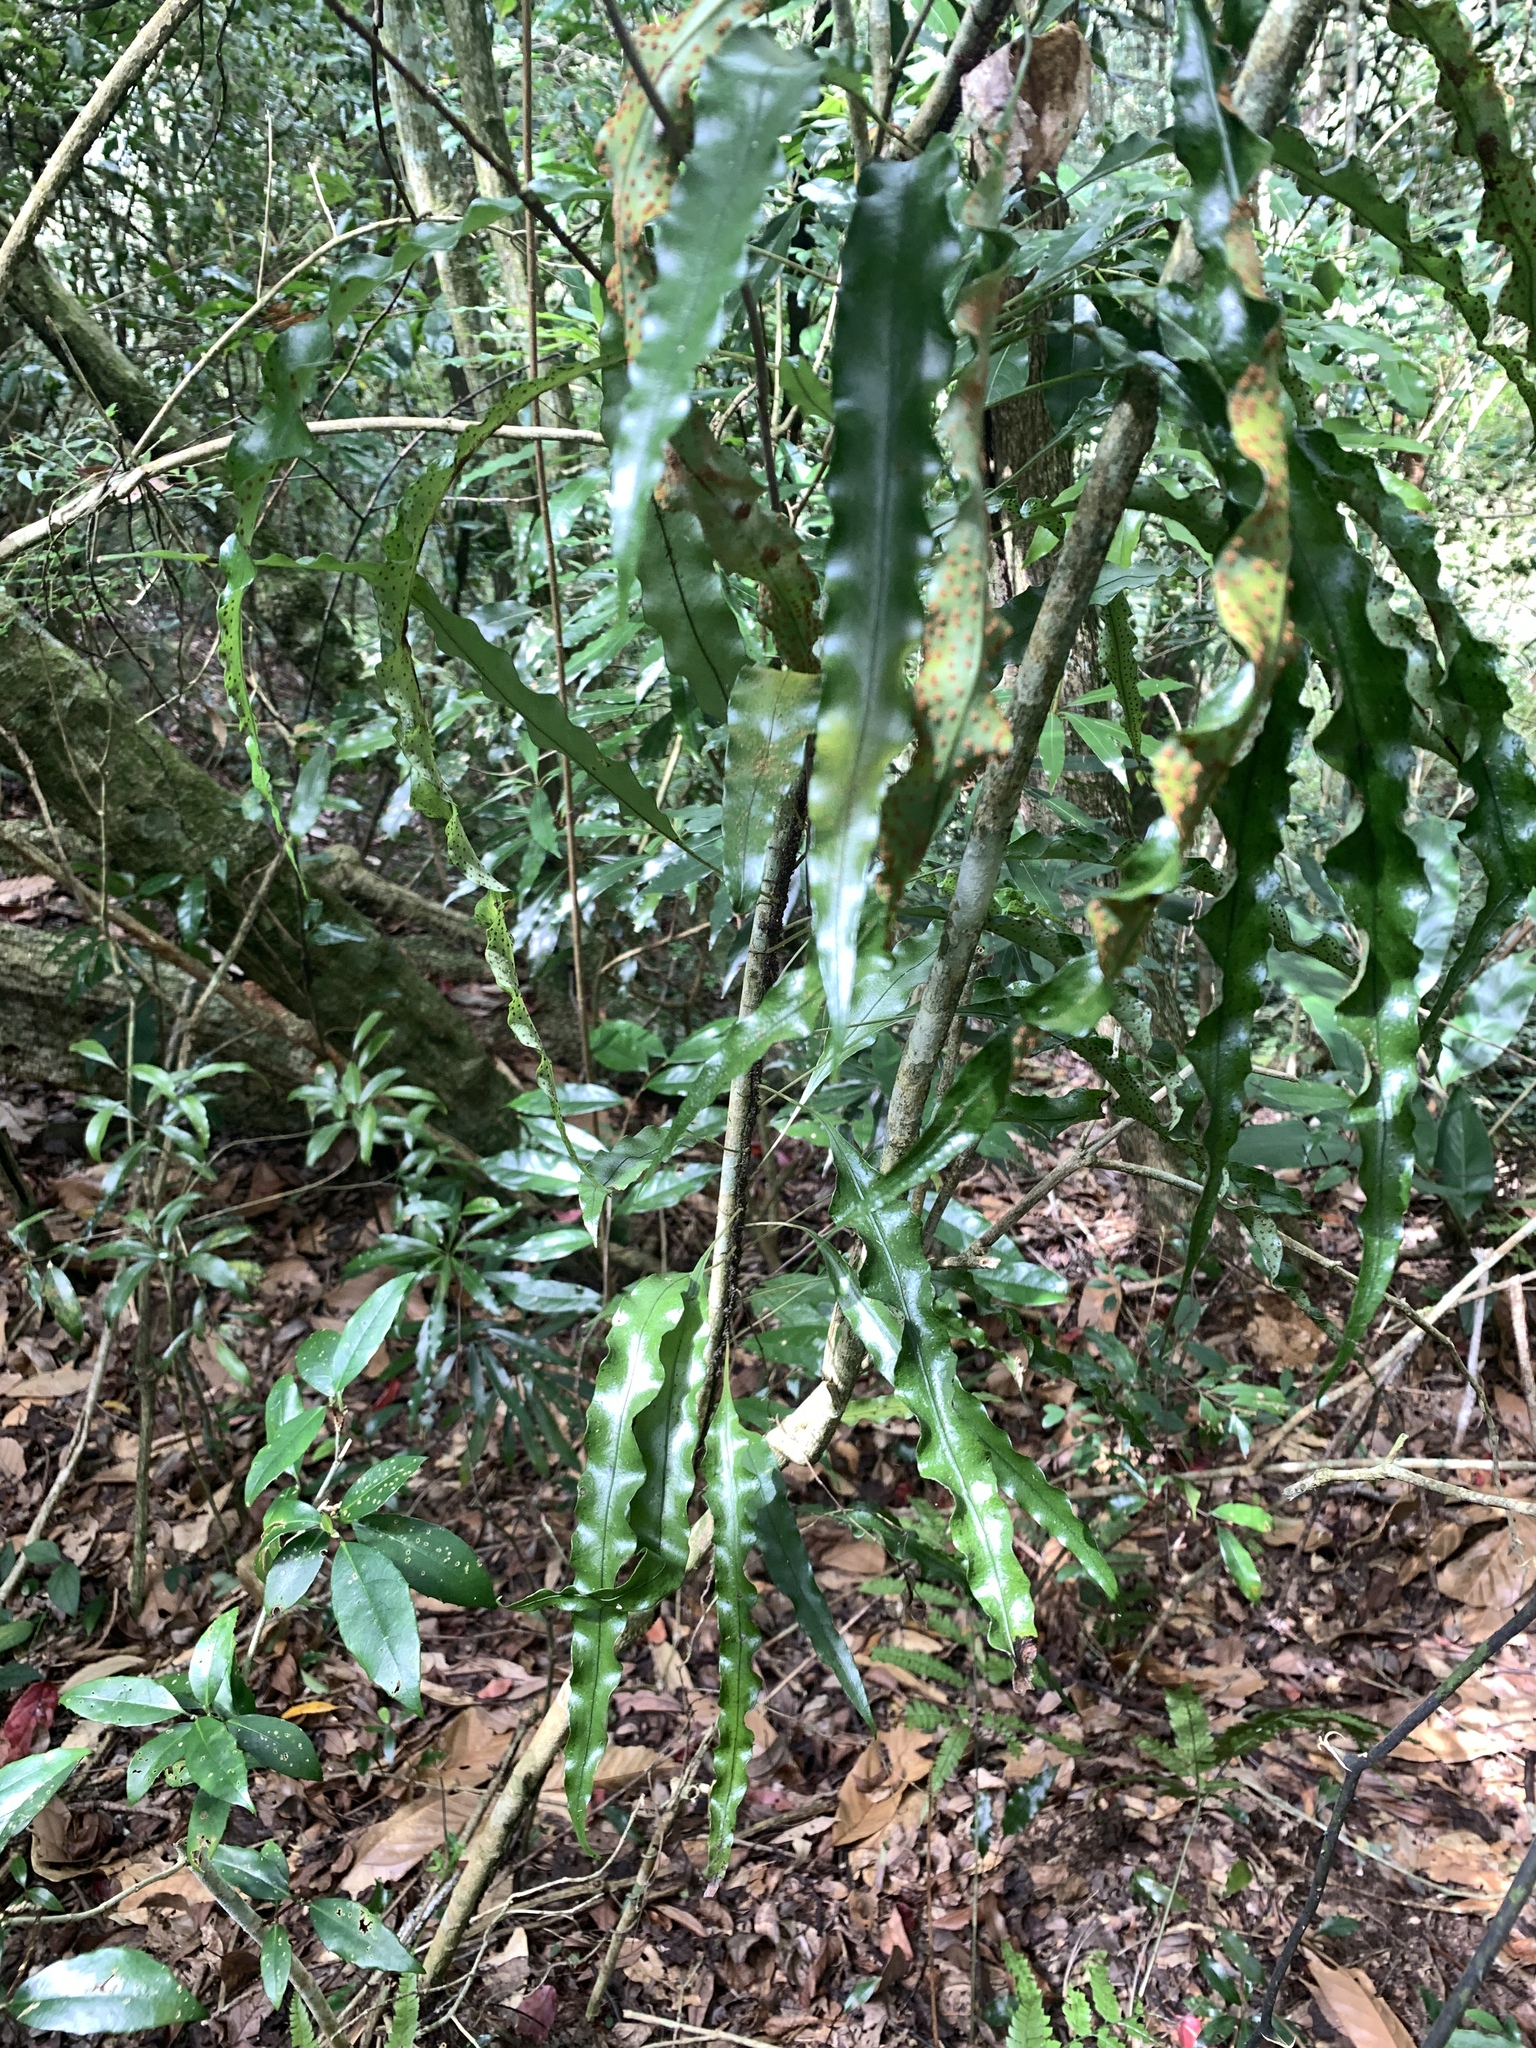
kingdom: Plantae
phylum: Tracheophyta
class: Polypodiopsida
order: Polypodiales
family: Polypodiaceae
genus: Lepisorus
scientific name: Lepisorus superficialis
